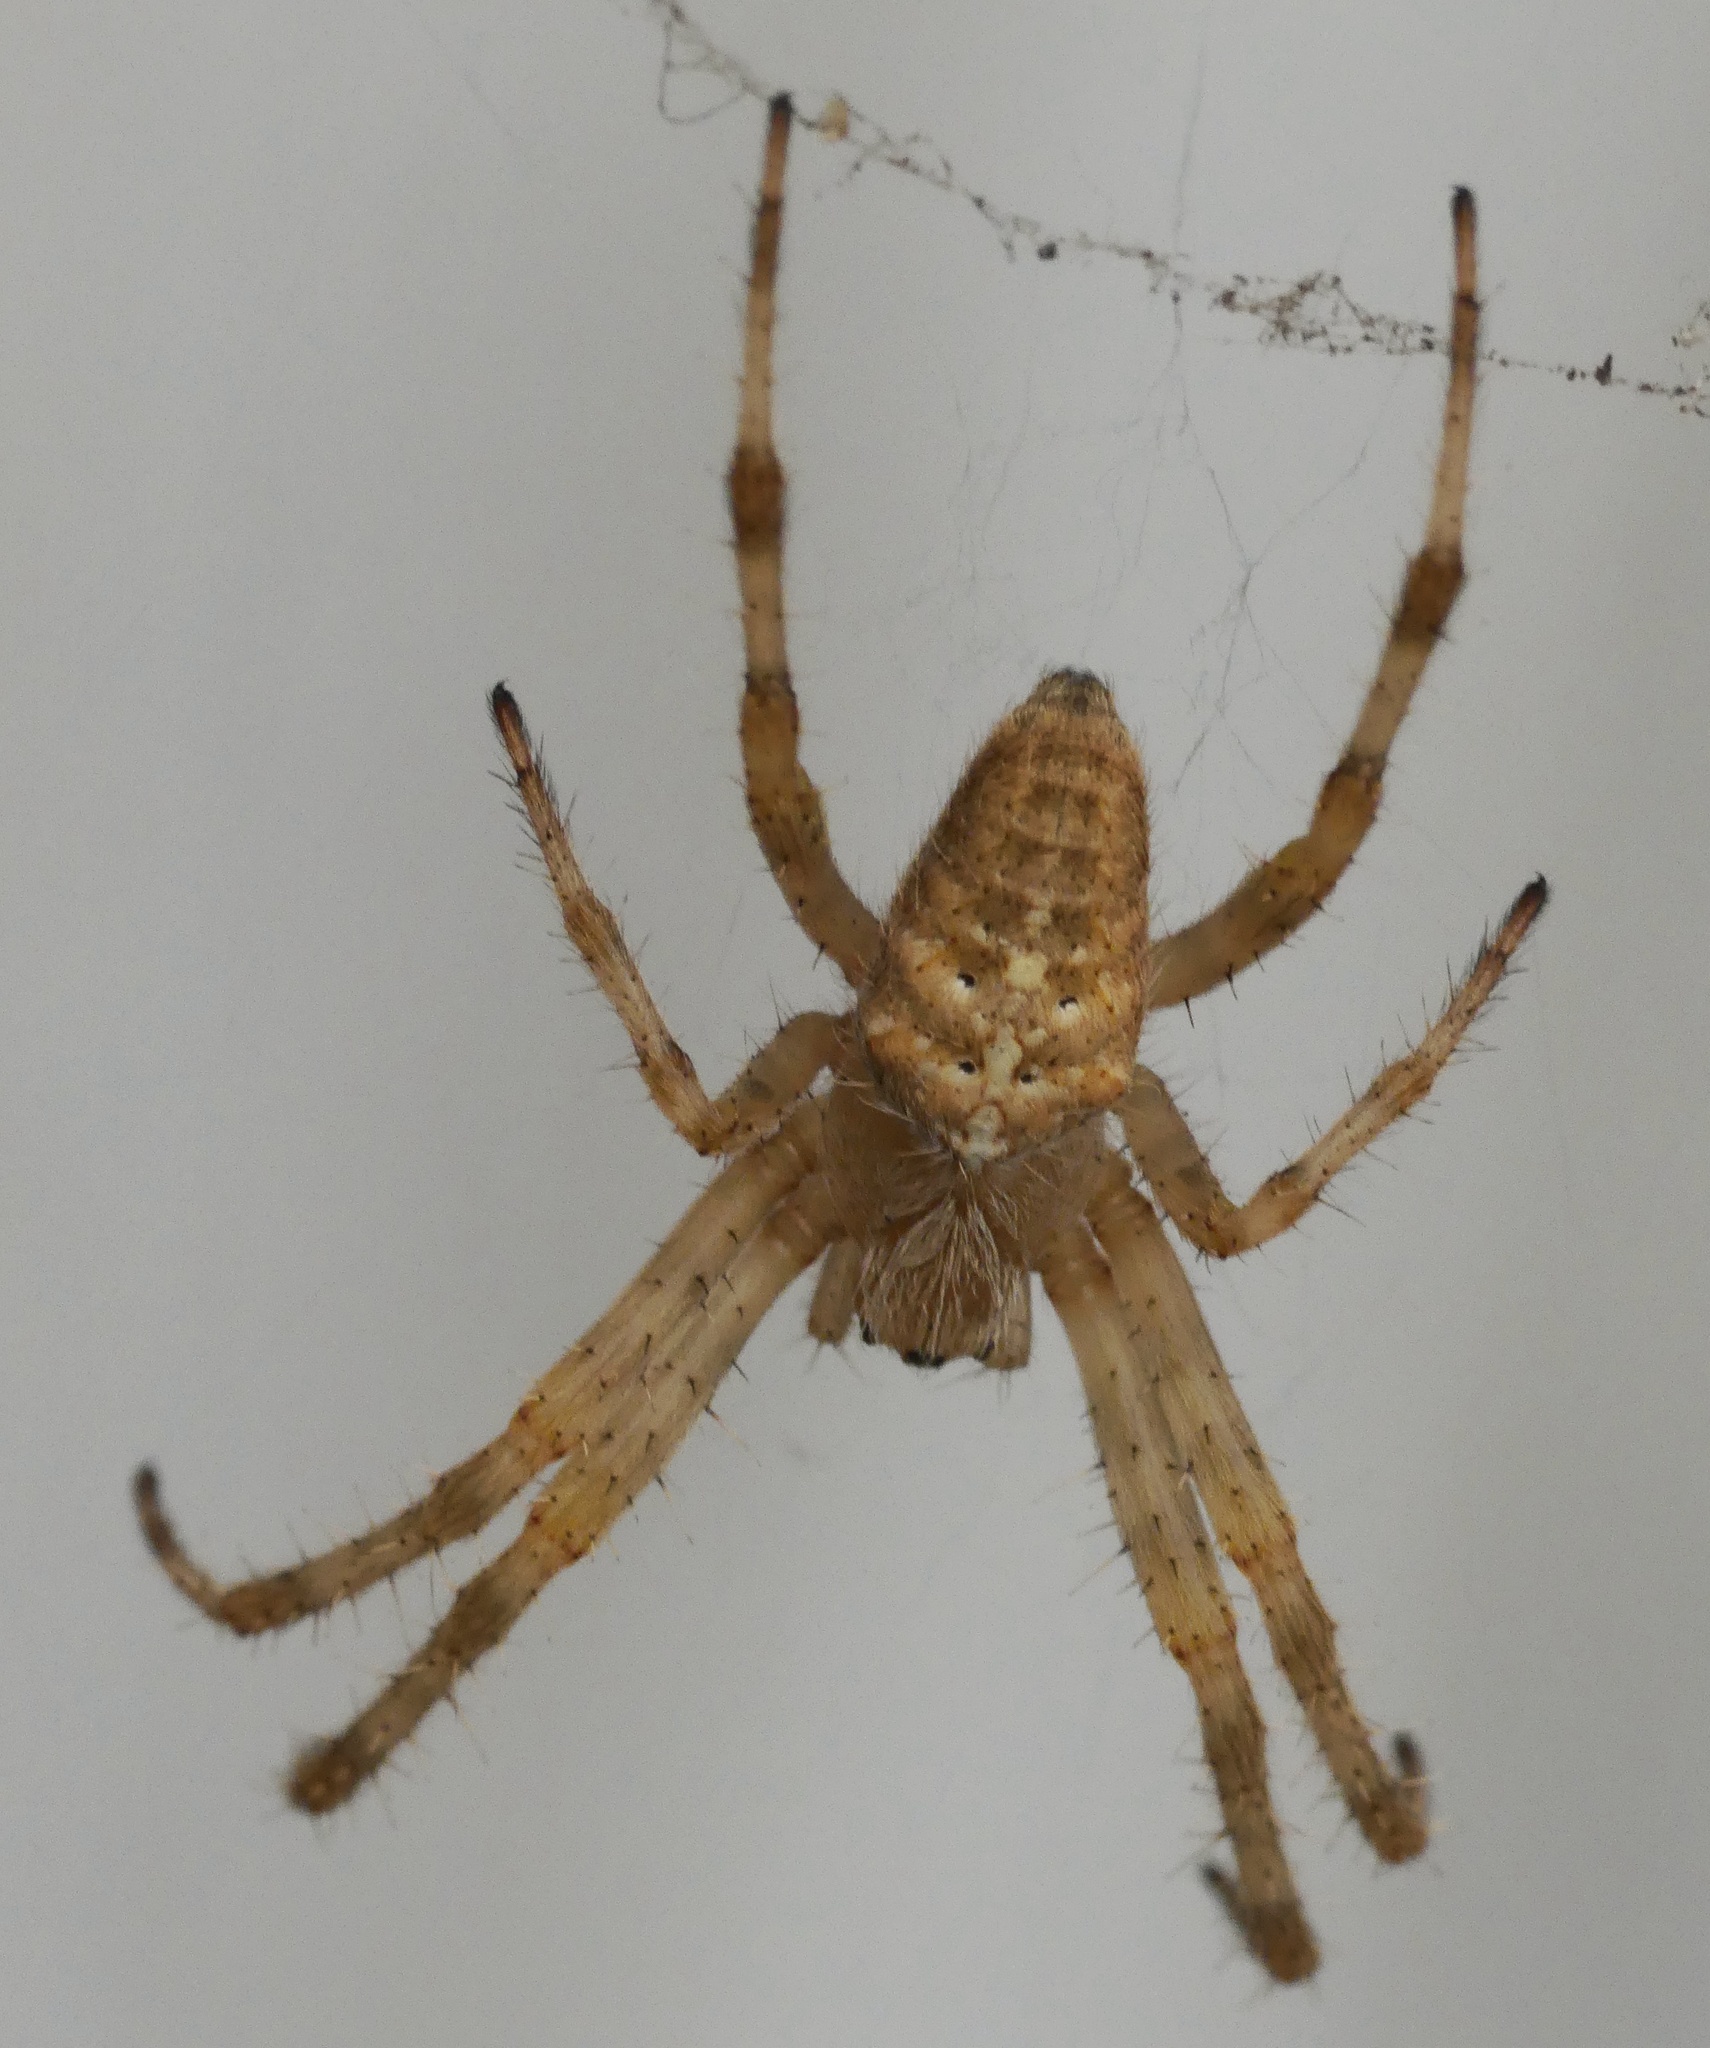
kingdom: Animalia
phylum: Arthropoda
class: Arachnida
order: Araneae
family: Araneidae
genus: Araneus
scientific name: Araneus diadematus
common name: Cross orbweaver
